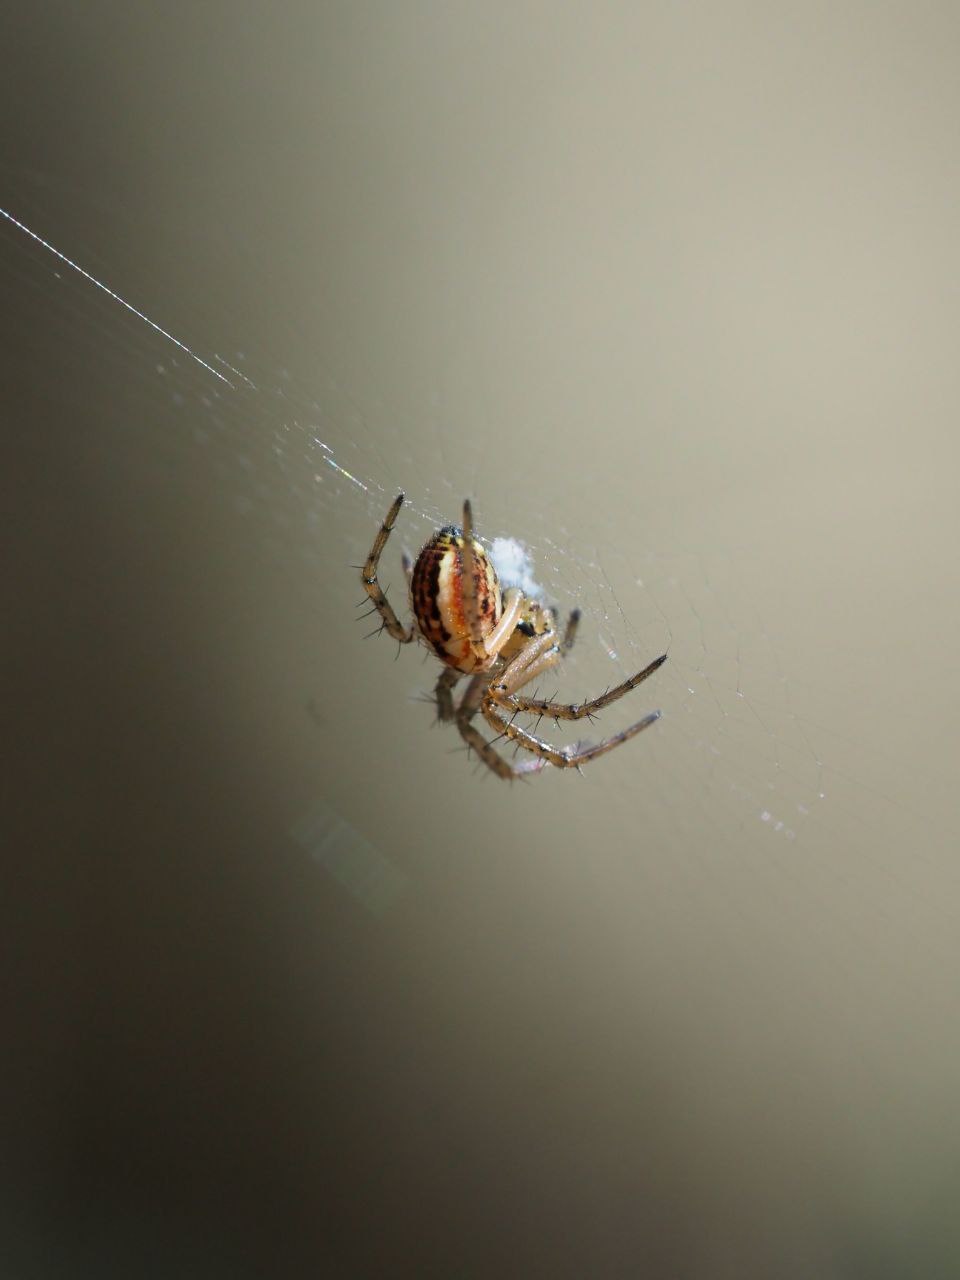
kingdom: Animalia
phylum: Arthropoda
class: Arachnida
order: Araneae
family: Araneidae
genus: Mangora
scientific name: Mangora acalypha
